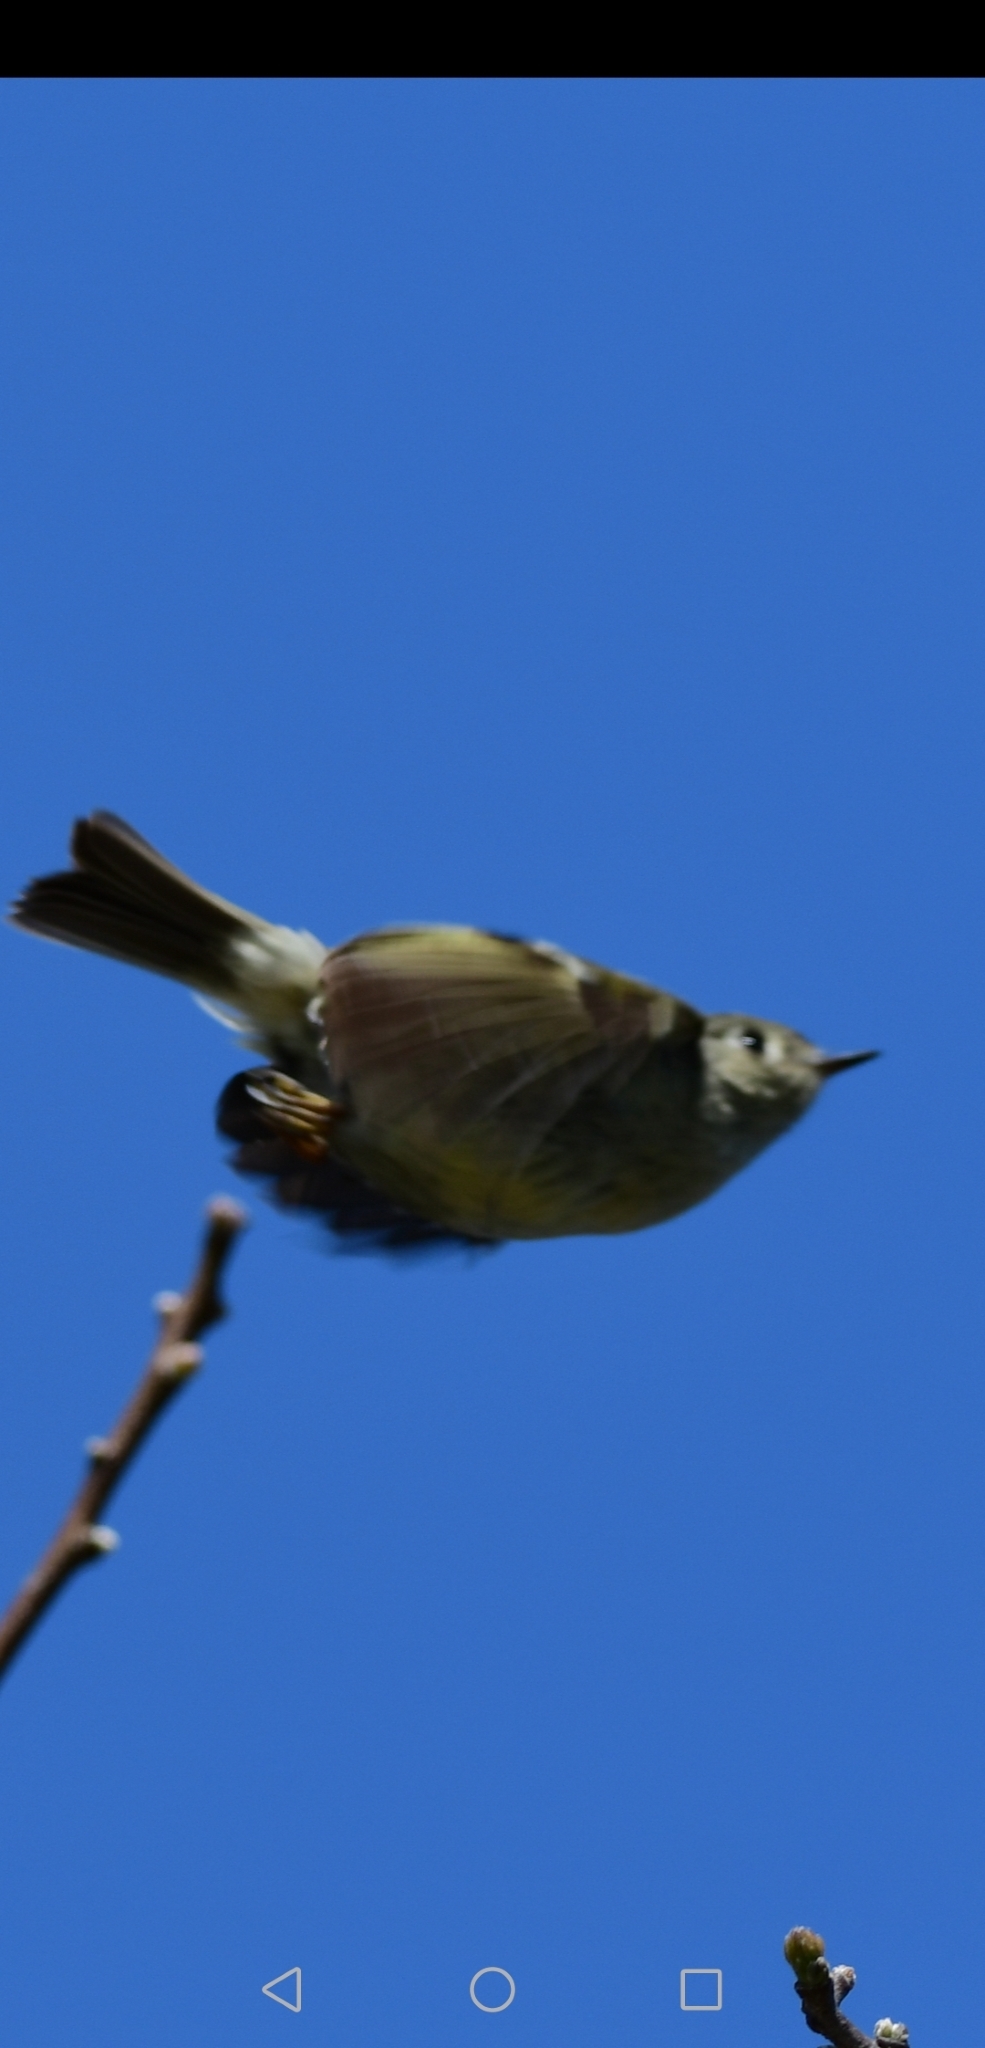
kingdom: Animalia
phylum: Chordata
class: Aves
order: Passeriformes
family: Regulidae
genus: Regulus
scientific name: Regulus calendula
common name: Ruby-crowned kinglet
